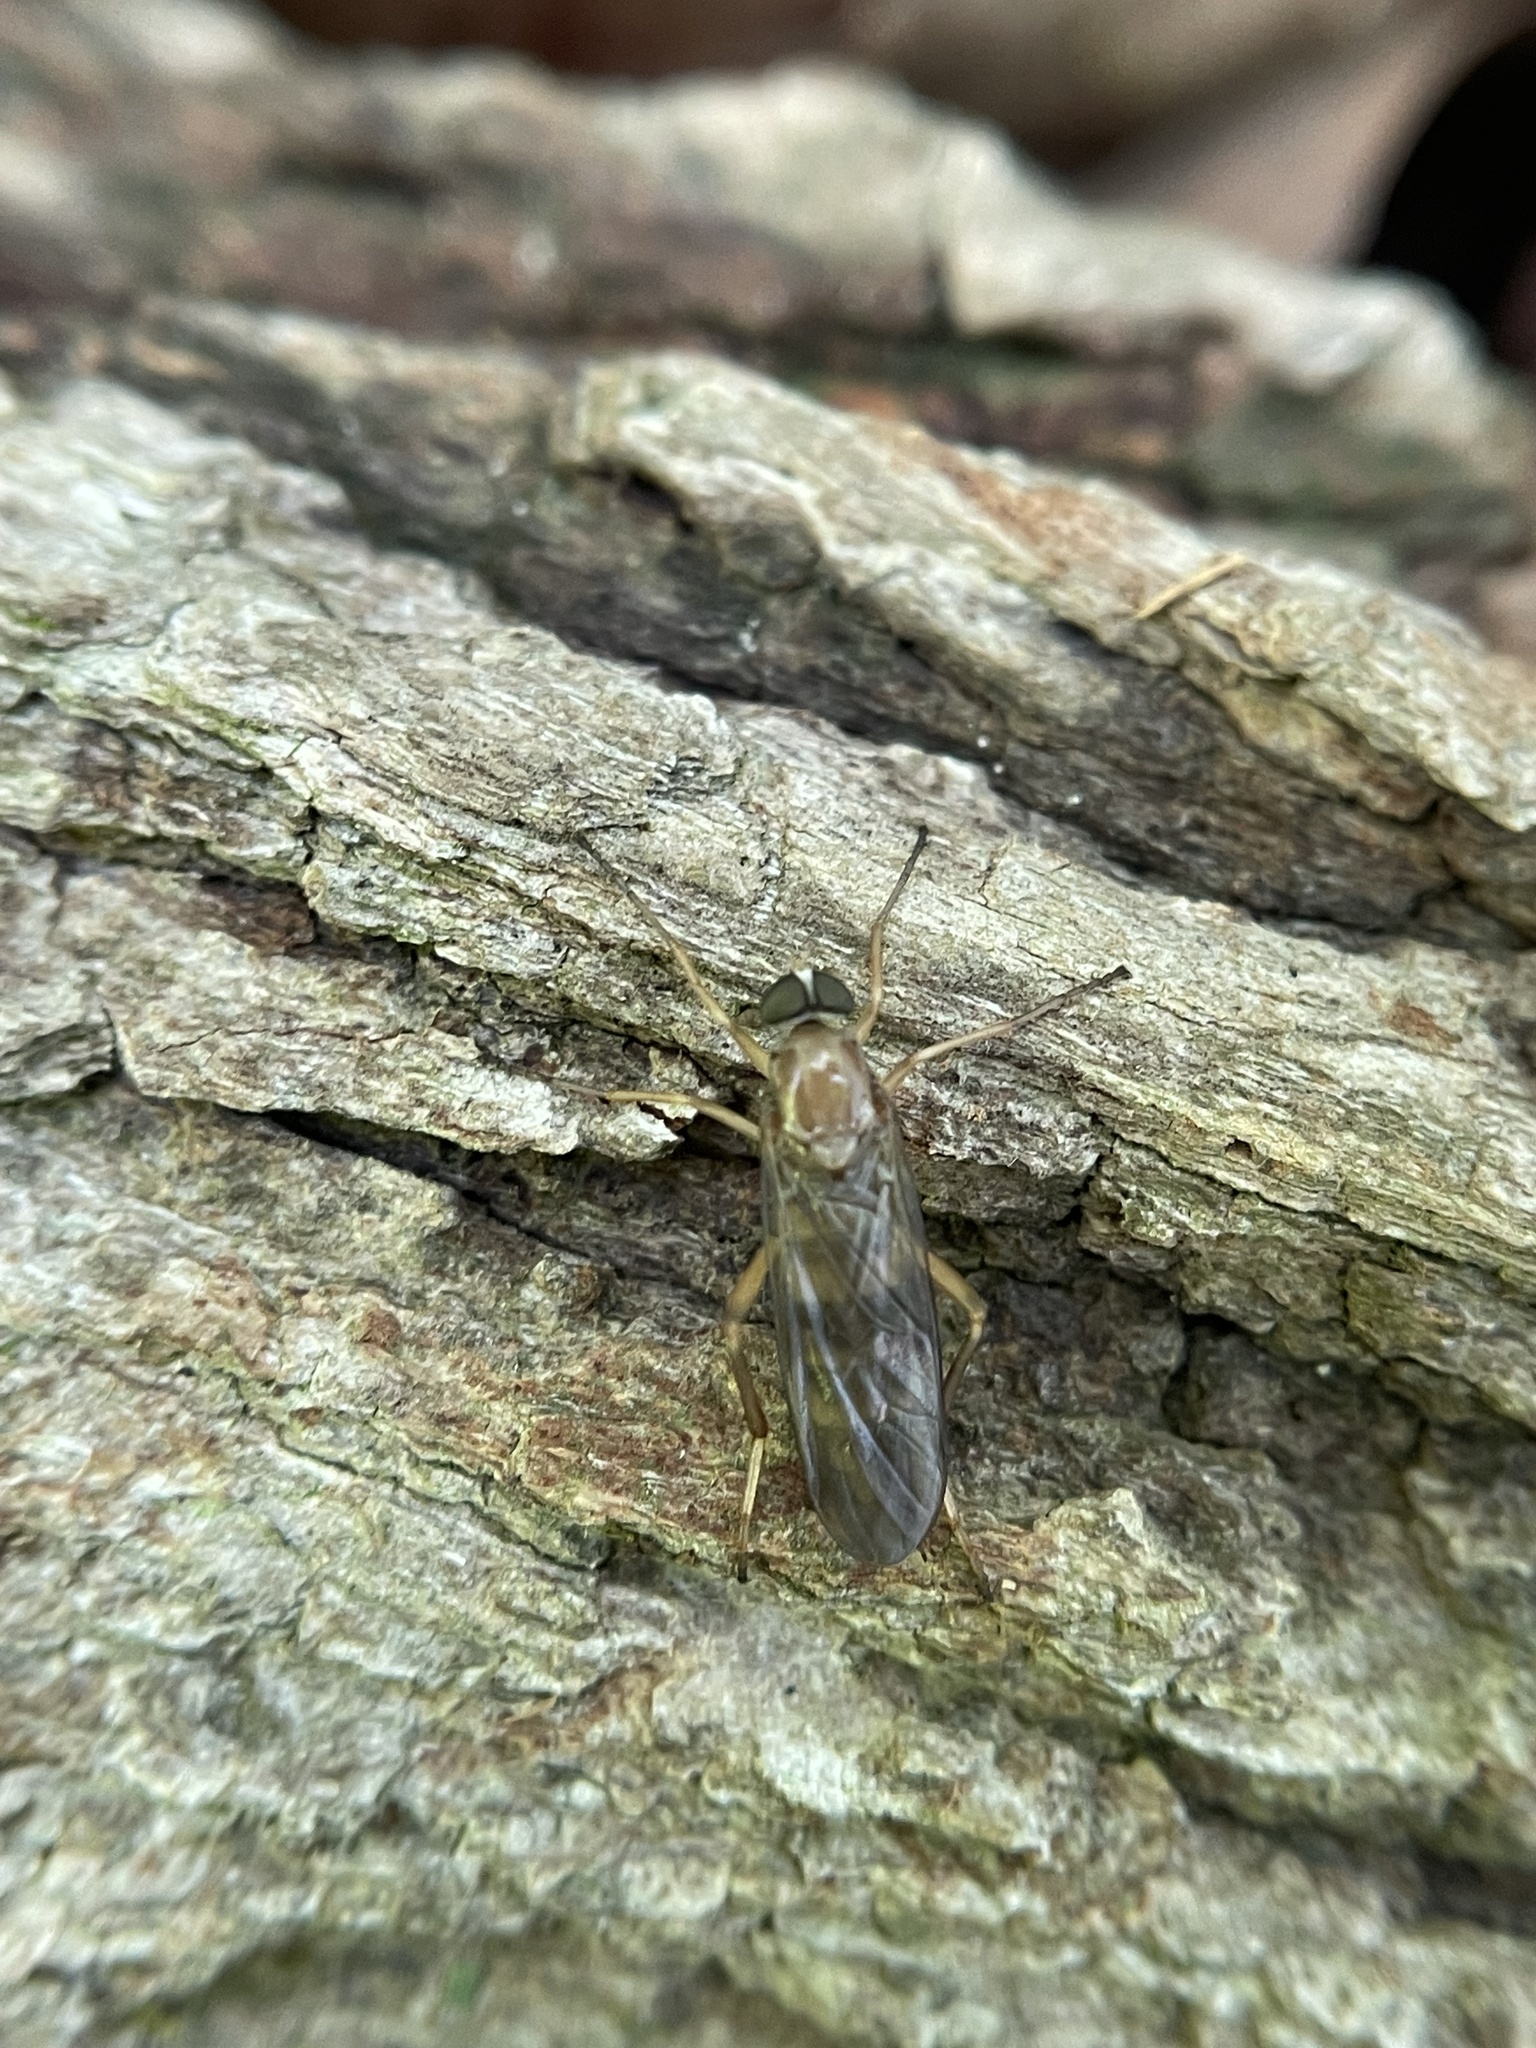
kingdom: Animalia
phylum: Arthropoda
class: Insecta
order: Diptera
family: Xylophagidae
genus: Dialysis
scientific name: Dialysis elongata
